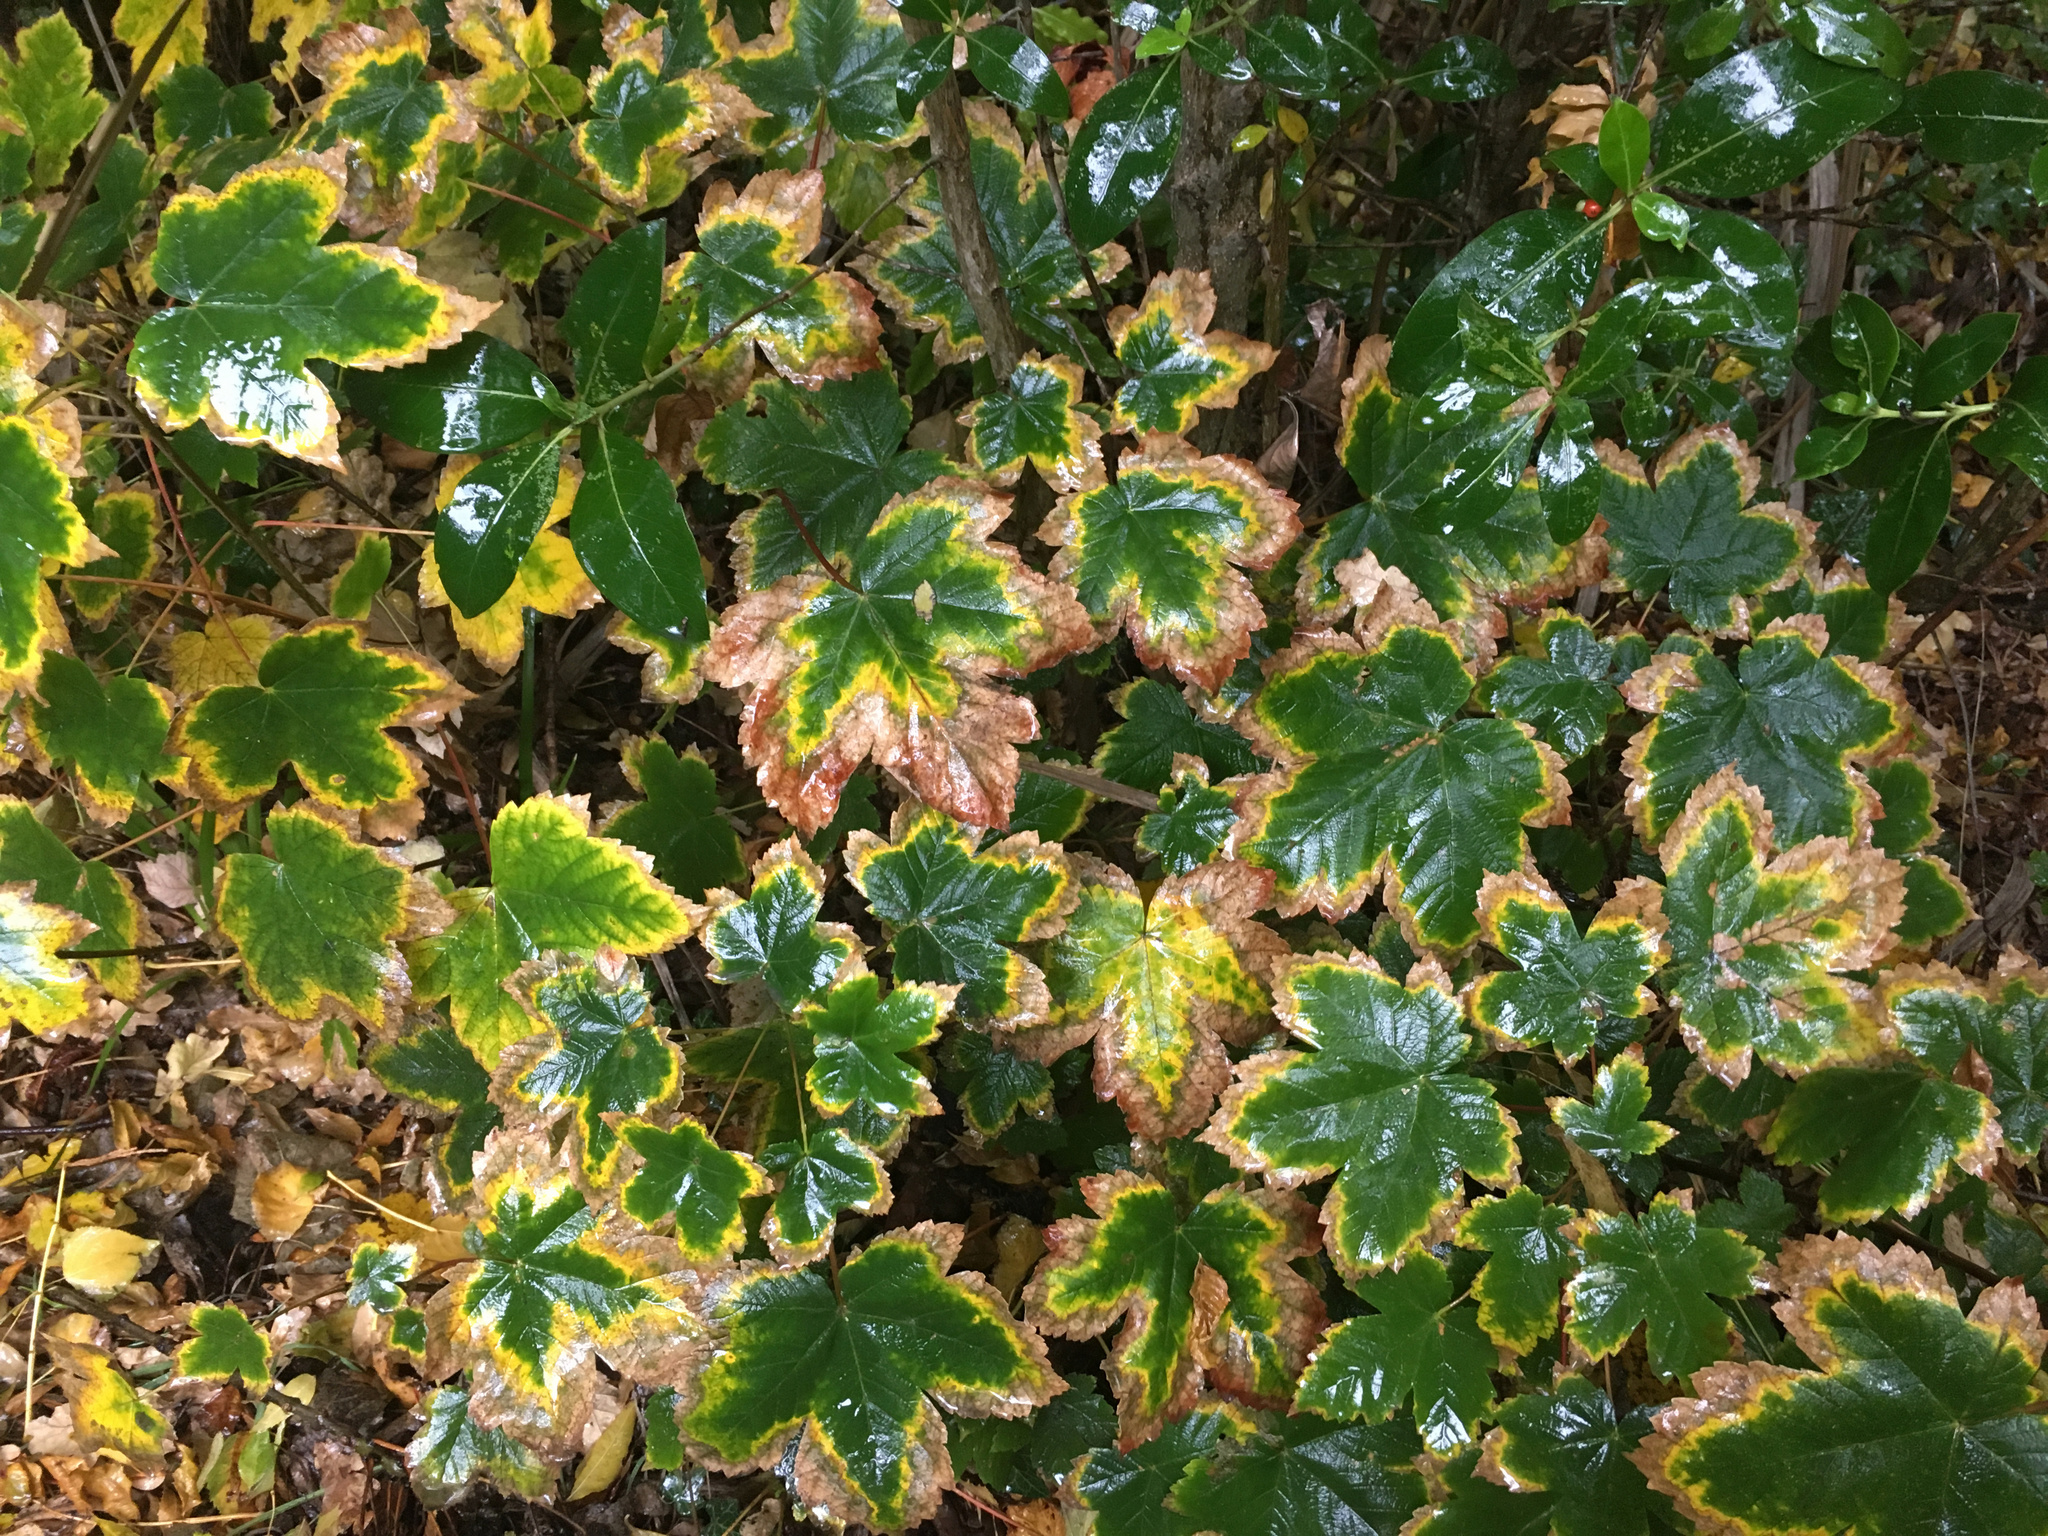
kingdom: Plantae
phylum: Tracheophyta
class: Magnoliopsida
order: Sapindales
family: Sapindaceae
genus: Acer
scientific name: Acer pseudoplatanus
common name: Sycamore
